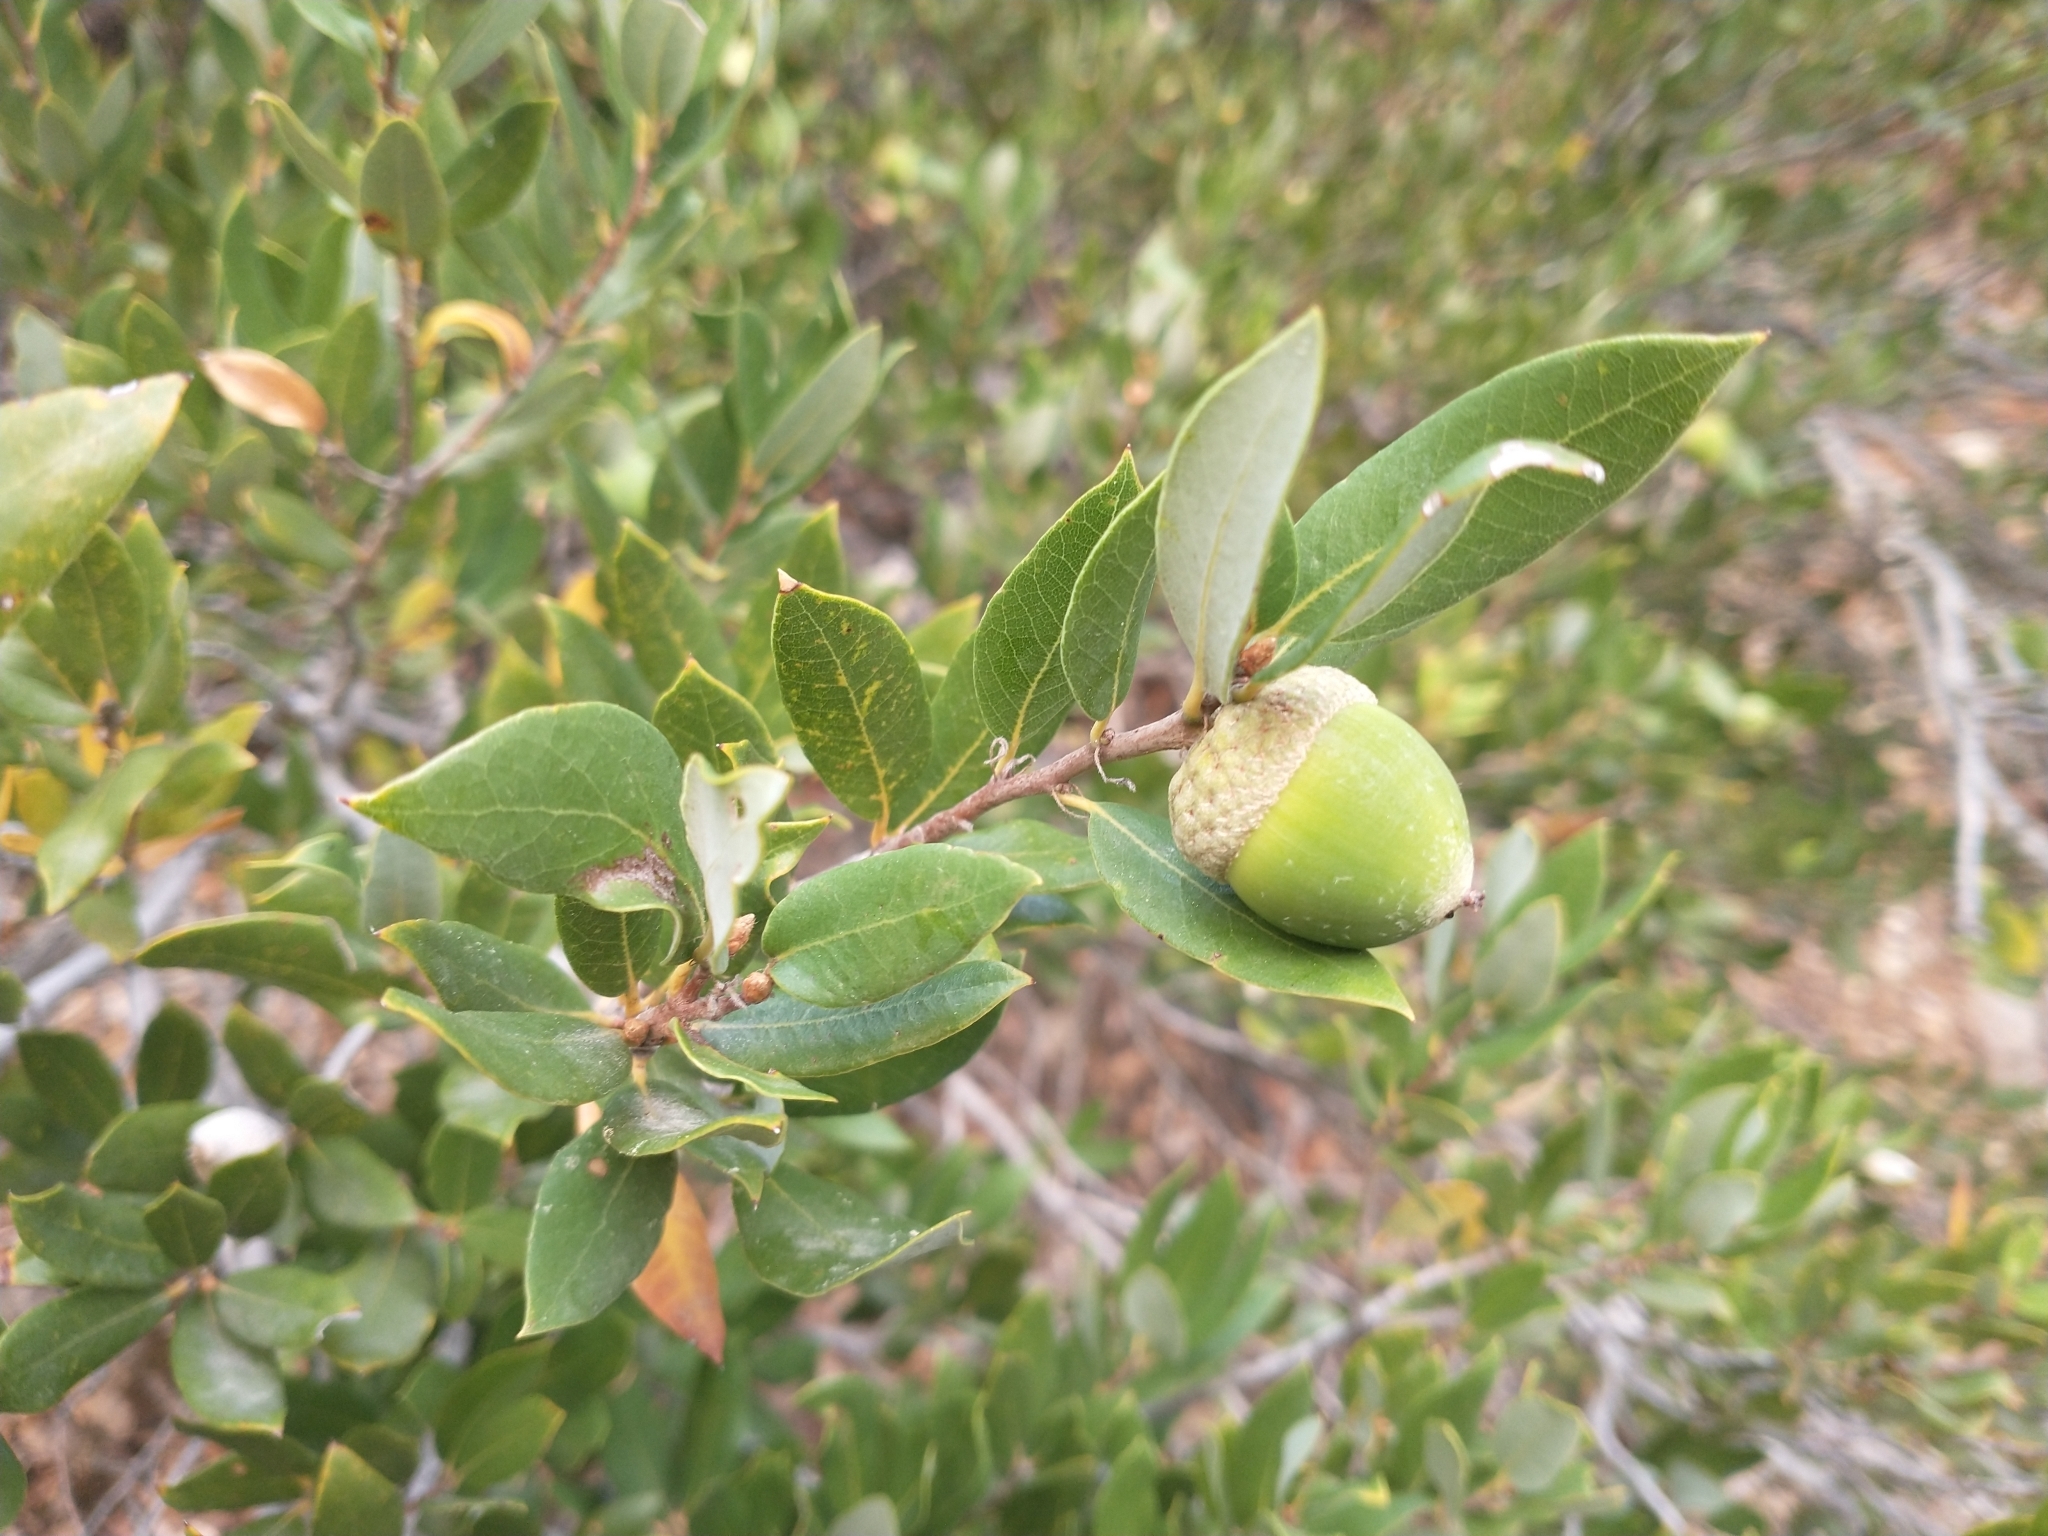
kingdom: Plantae
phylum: Tracheophyta
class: Magnoliopsida
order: Fagales
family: Fagaceae
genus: Quercus
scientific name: Quercus vacciniifolia
